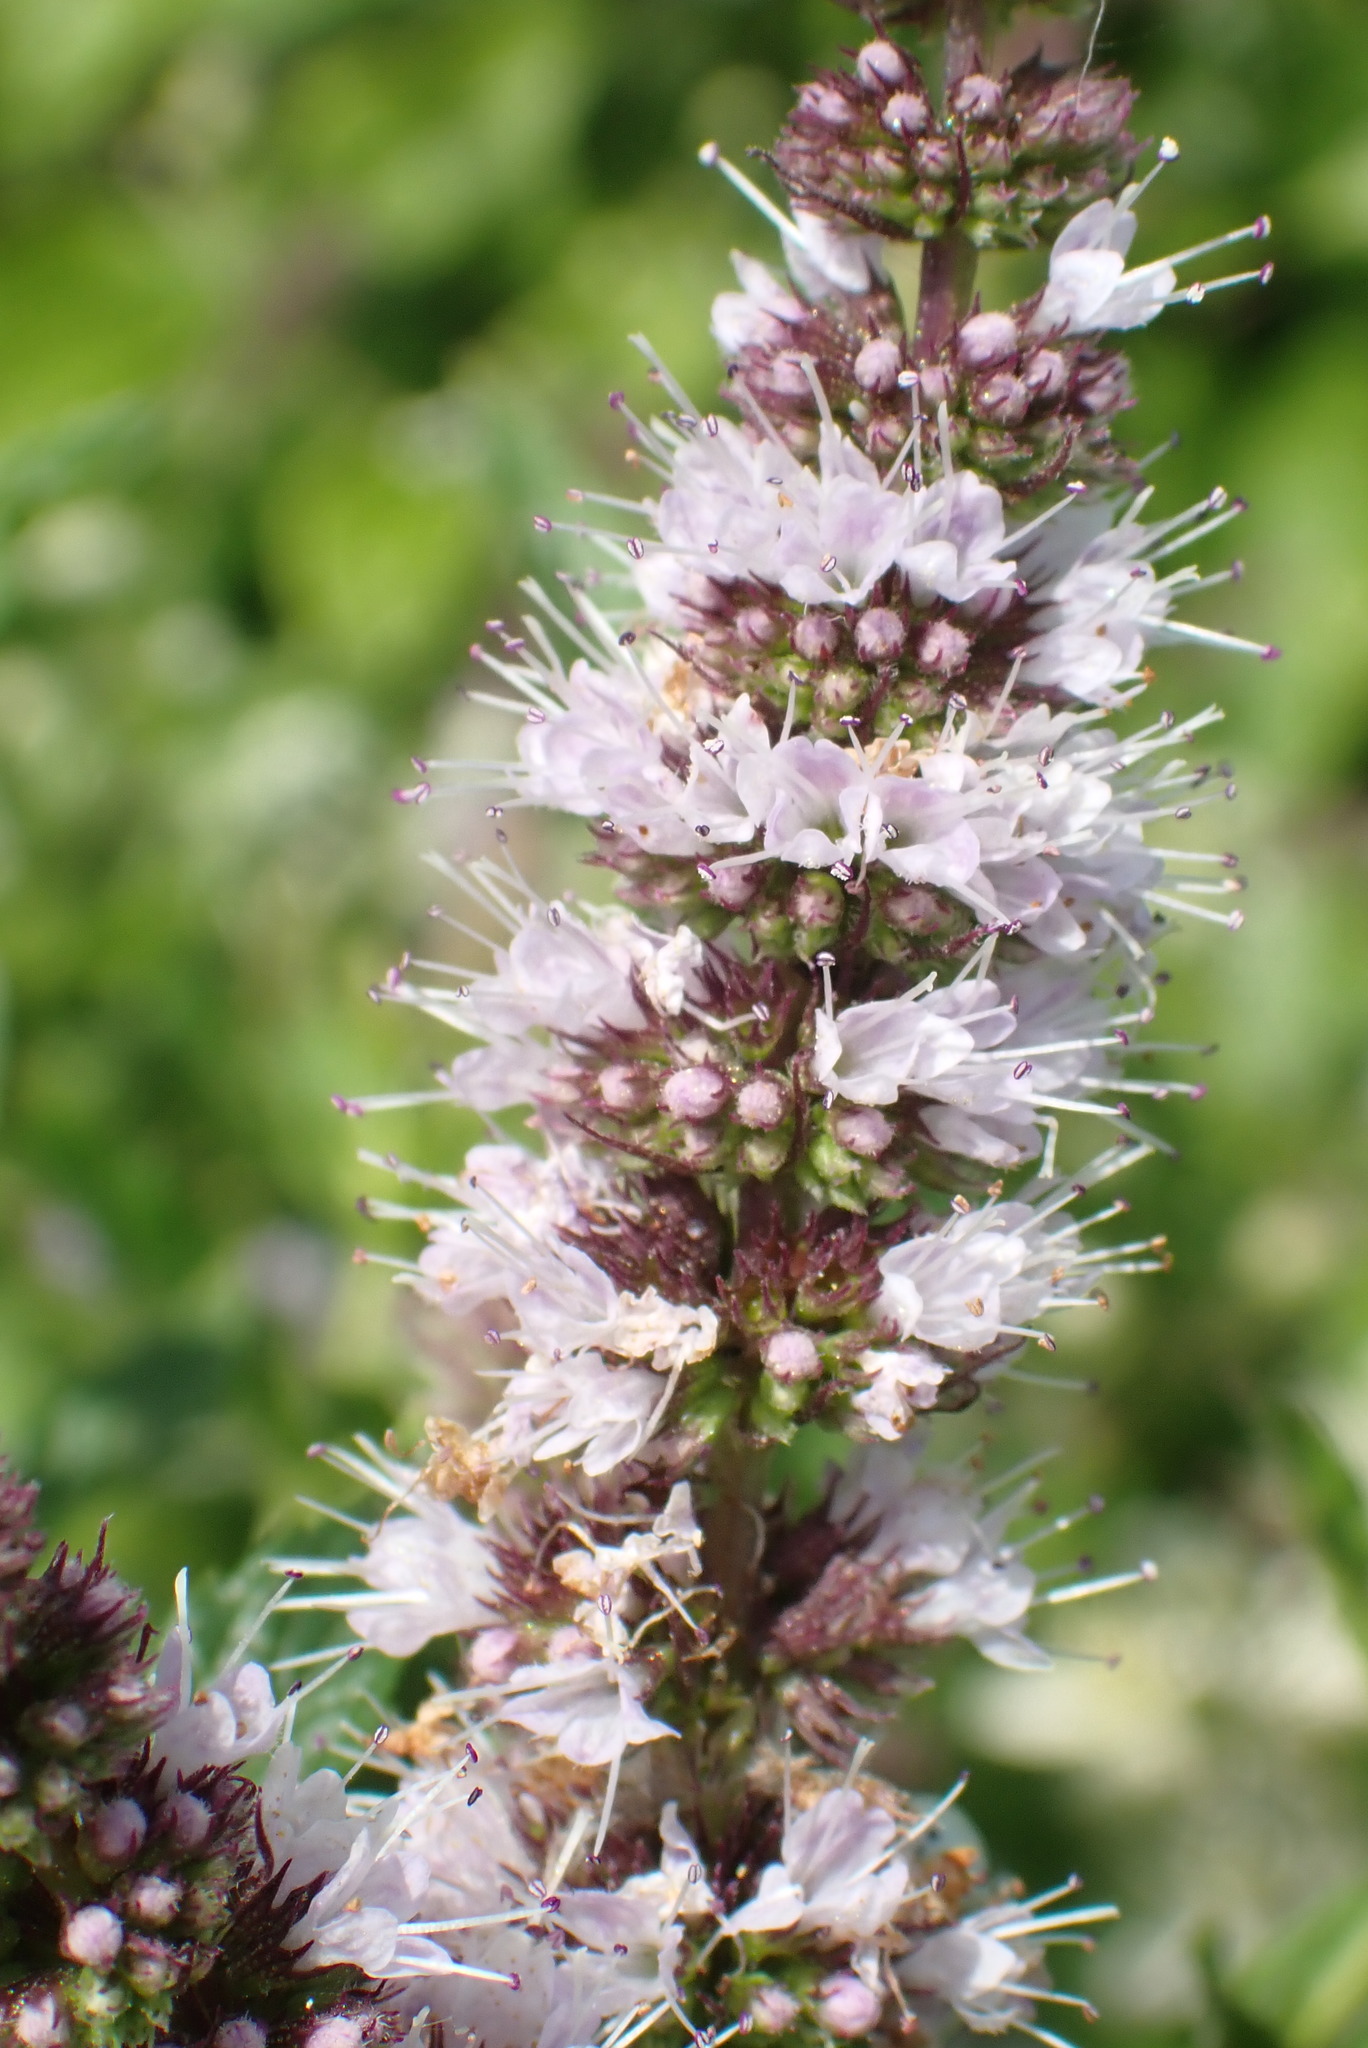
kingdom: Plantae
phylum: Tracheophyta
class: Magnoliopsida
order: Lamiales
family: Lamiaceae
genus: Mentha
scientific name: Mentha spicata
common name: Spearmint
